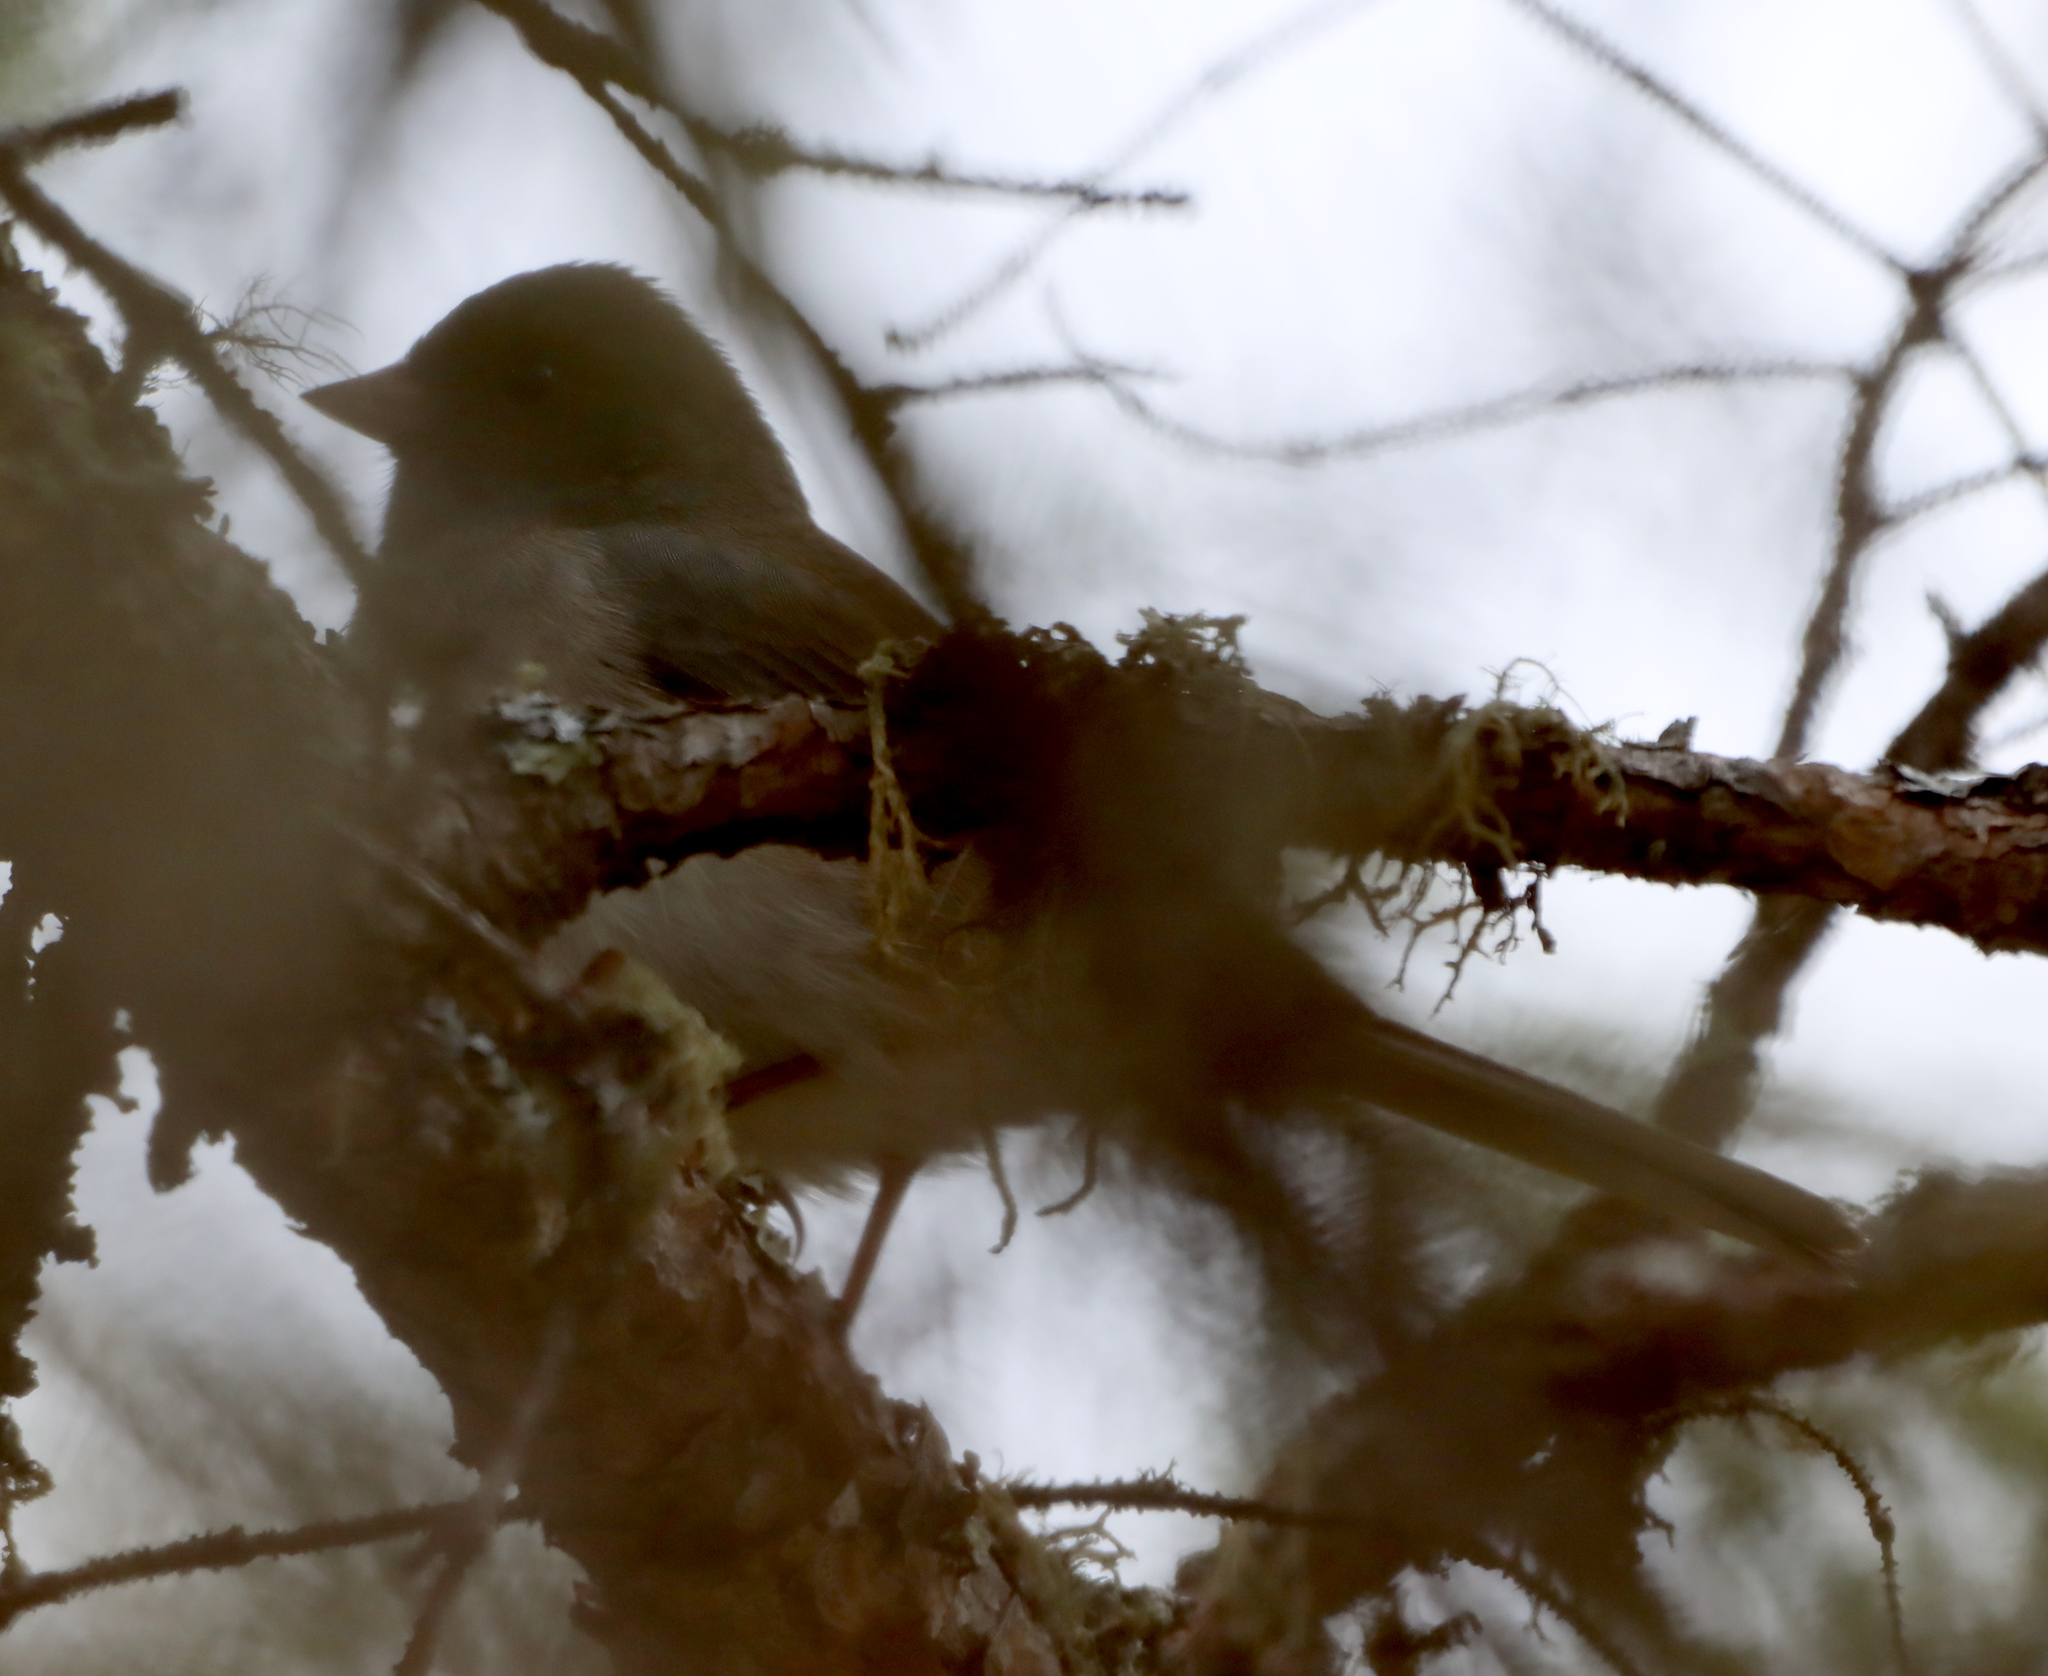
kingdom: Animalia
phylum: Chordata
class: Aves
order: Passeriformes
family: Passerellidae
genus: Junco
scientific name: Junco hyemalis
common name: Dark-eyed junco
